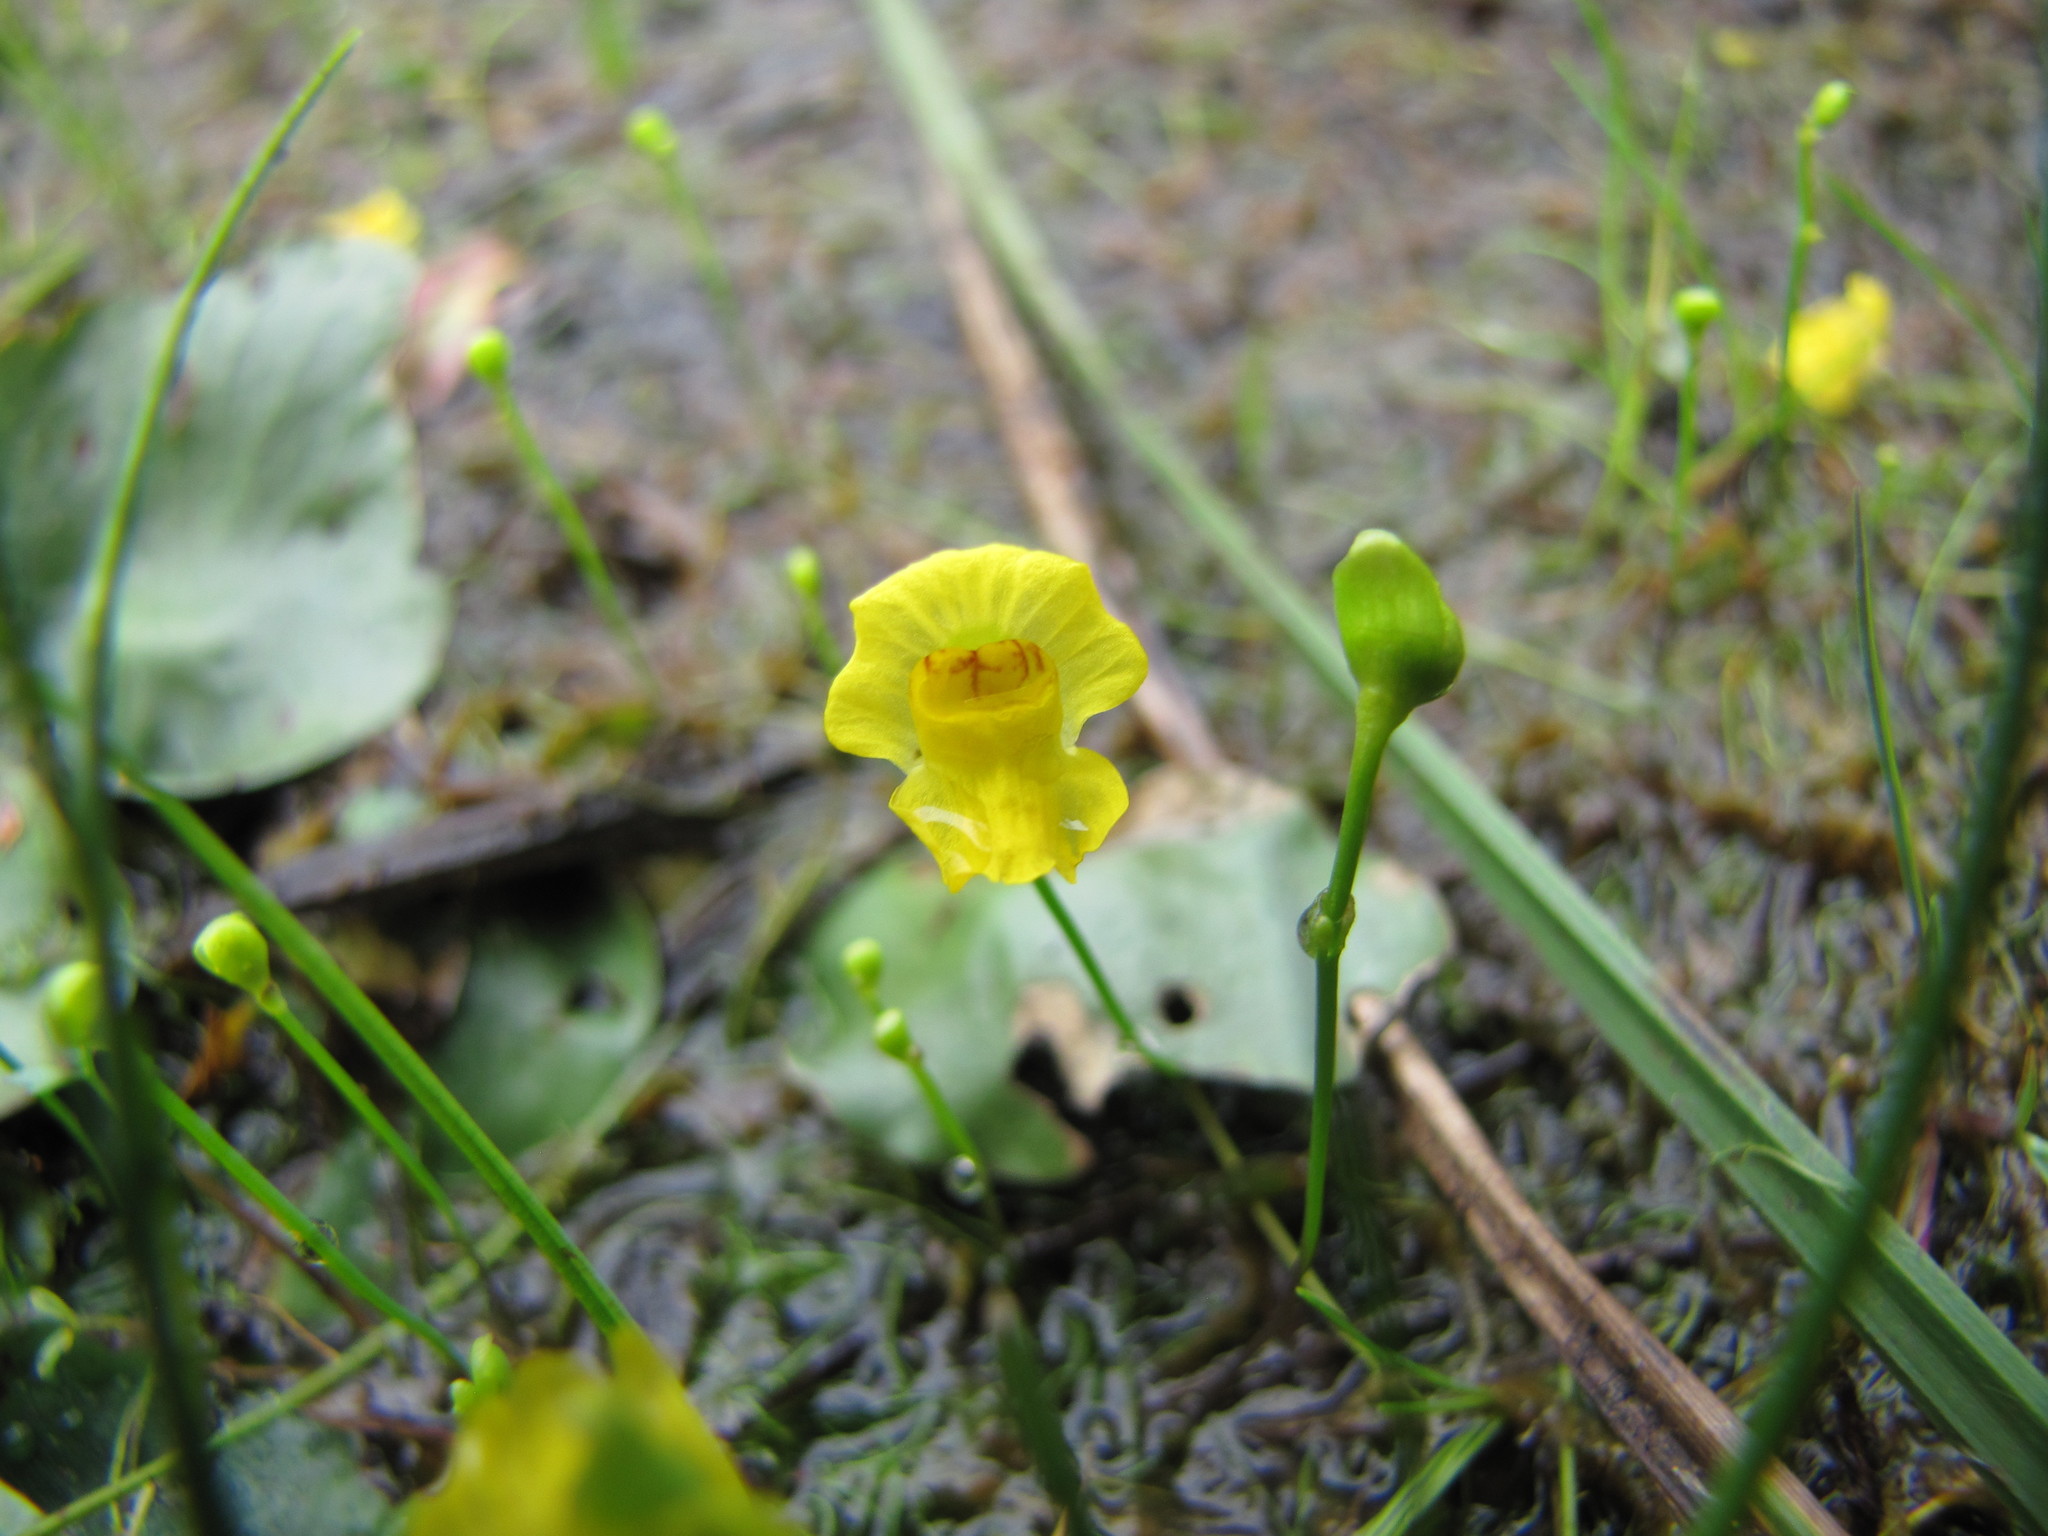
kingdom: Plantae
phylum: Tracheophyta
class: Magnoliopsida
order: Lamiales
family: Lentibulariaceae
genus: Utricularia
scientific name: Utricularia gibba
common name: Humped bladderwort
